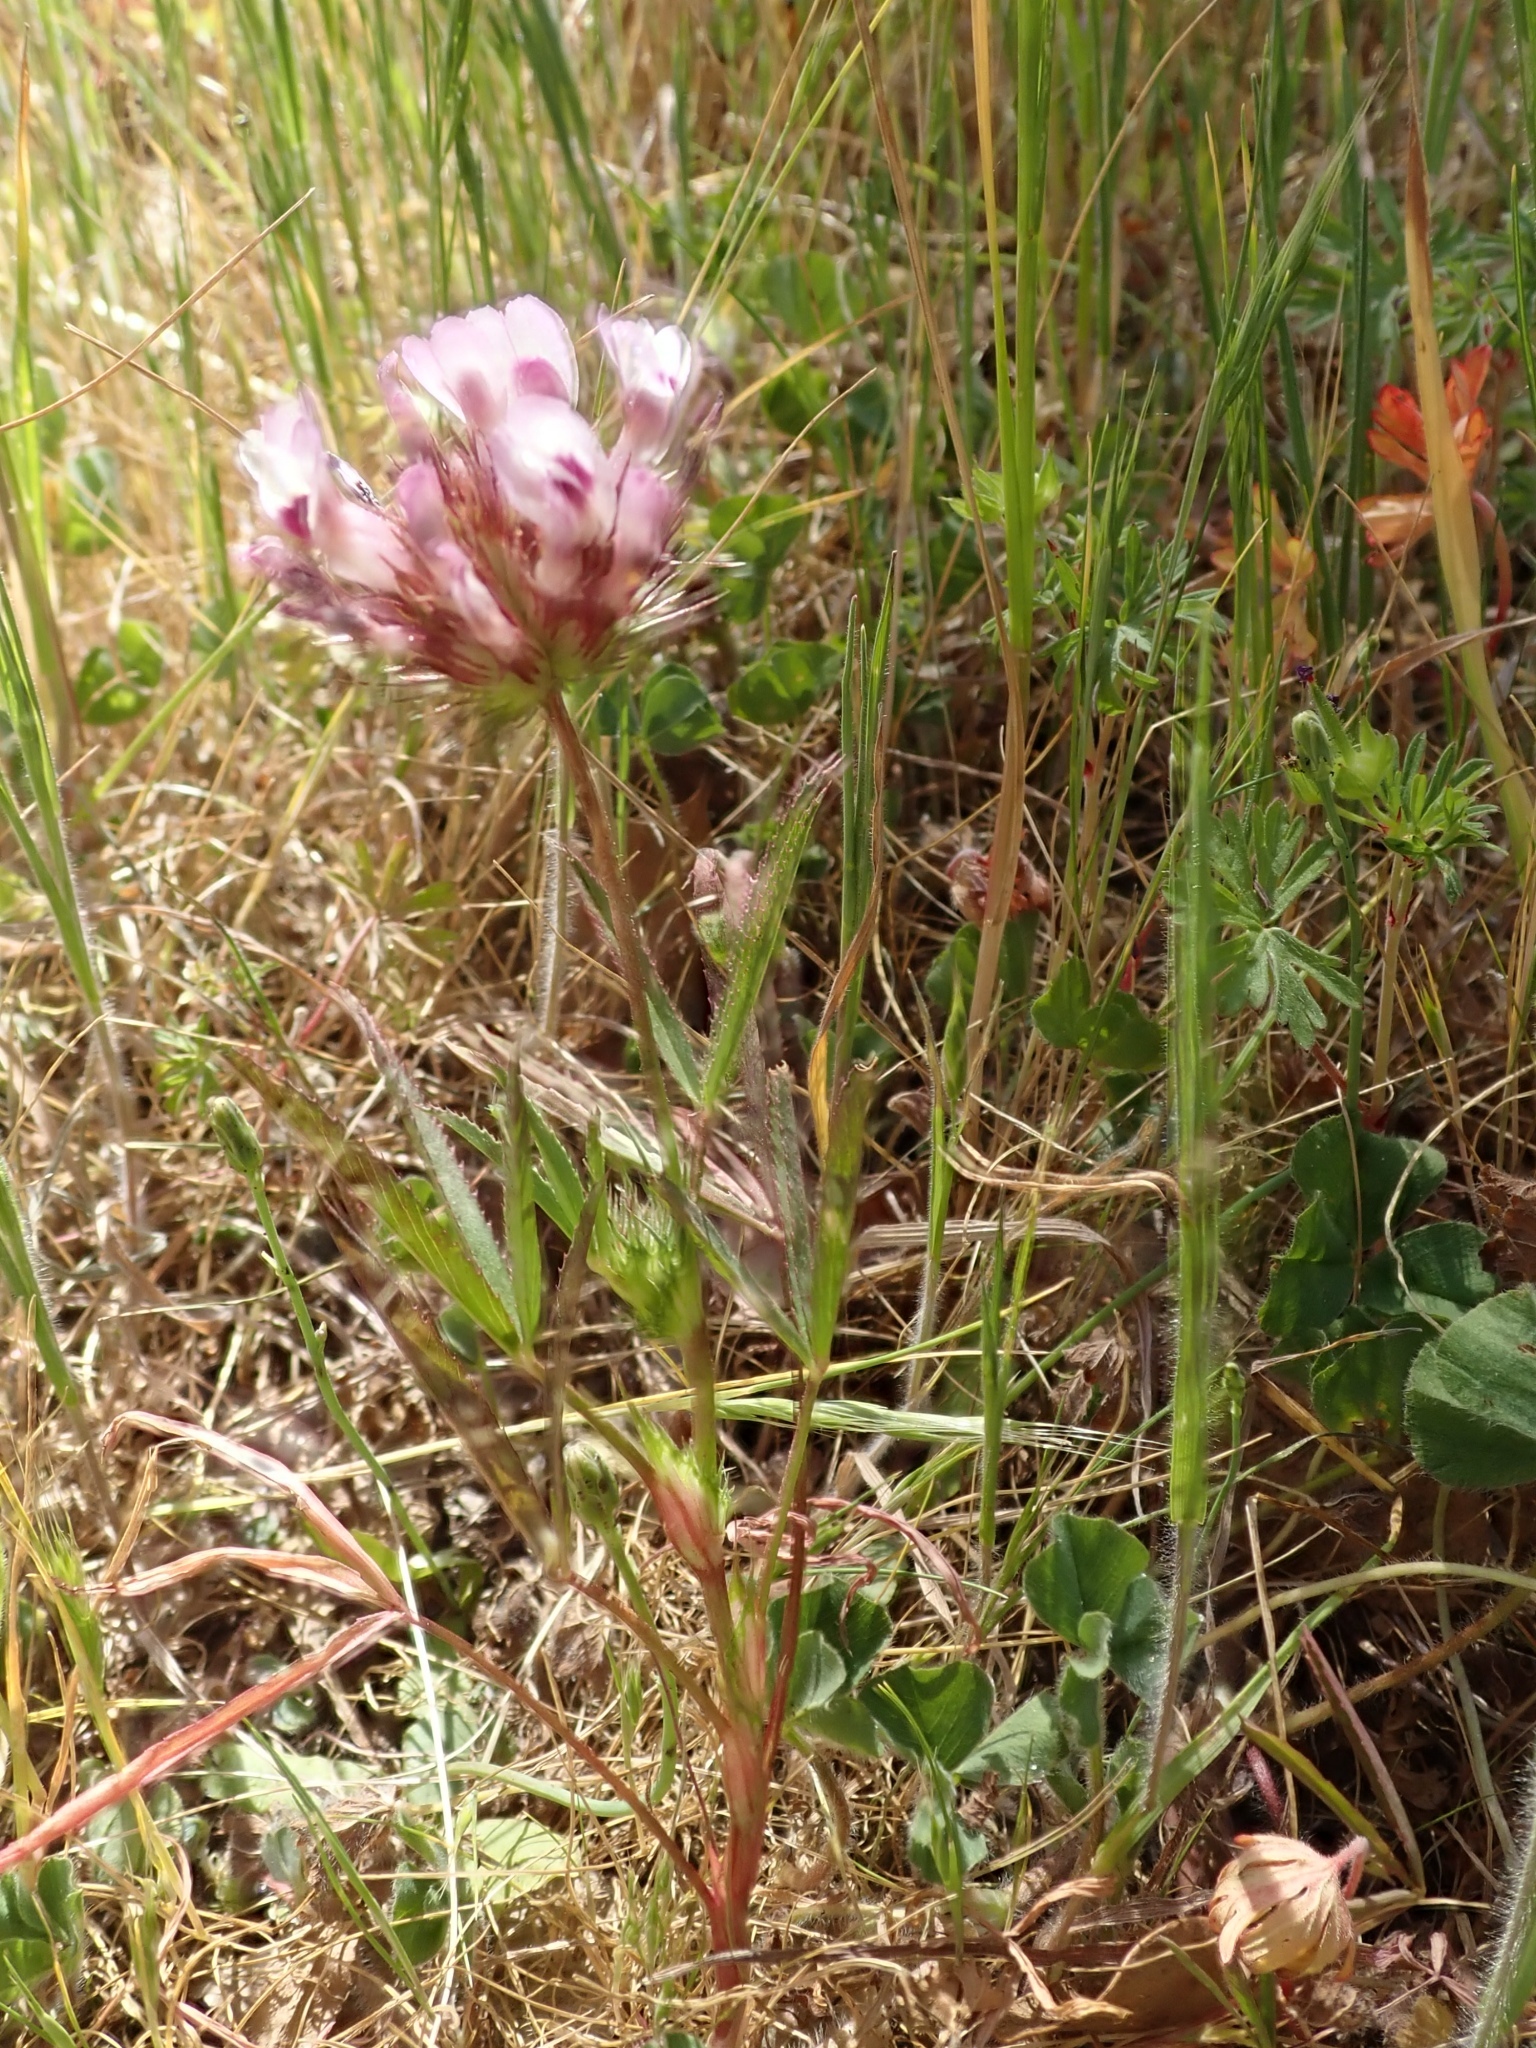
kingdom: Plantae
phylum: Tracheophyta
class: Magnoliopsida
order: Fabales
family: Fabaceae
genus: Trifolium
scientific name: Trifolium willdenovii
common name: Tomcat clover
